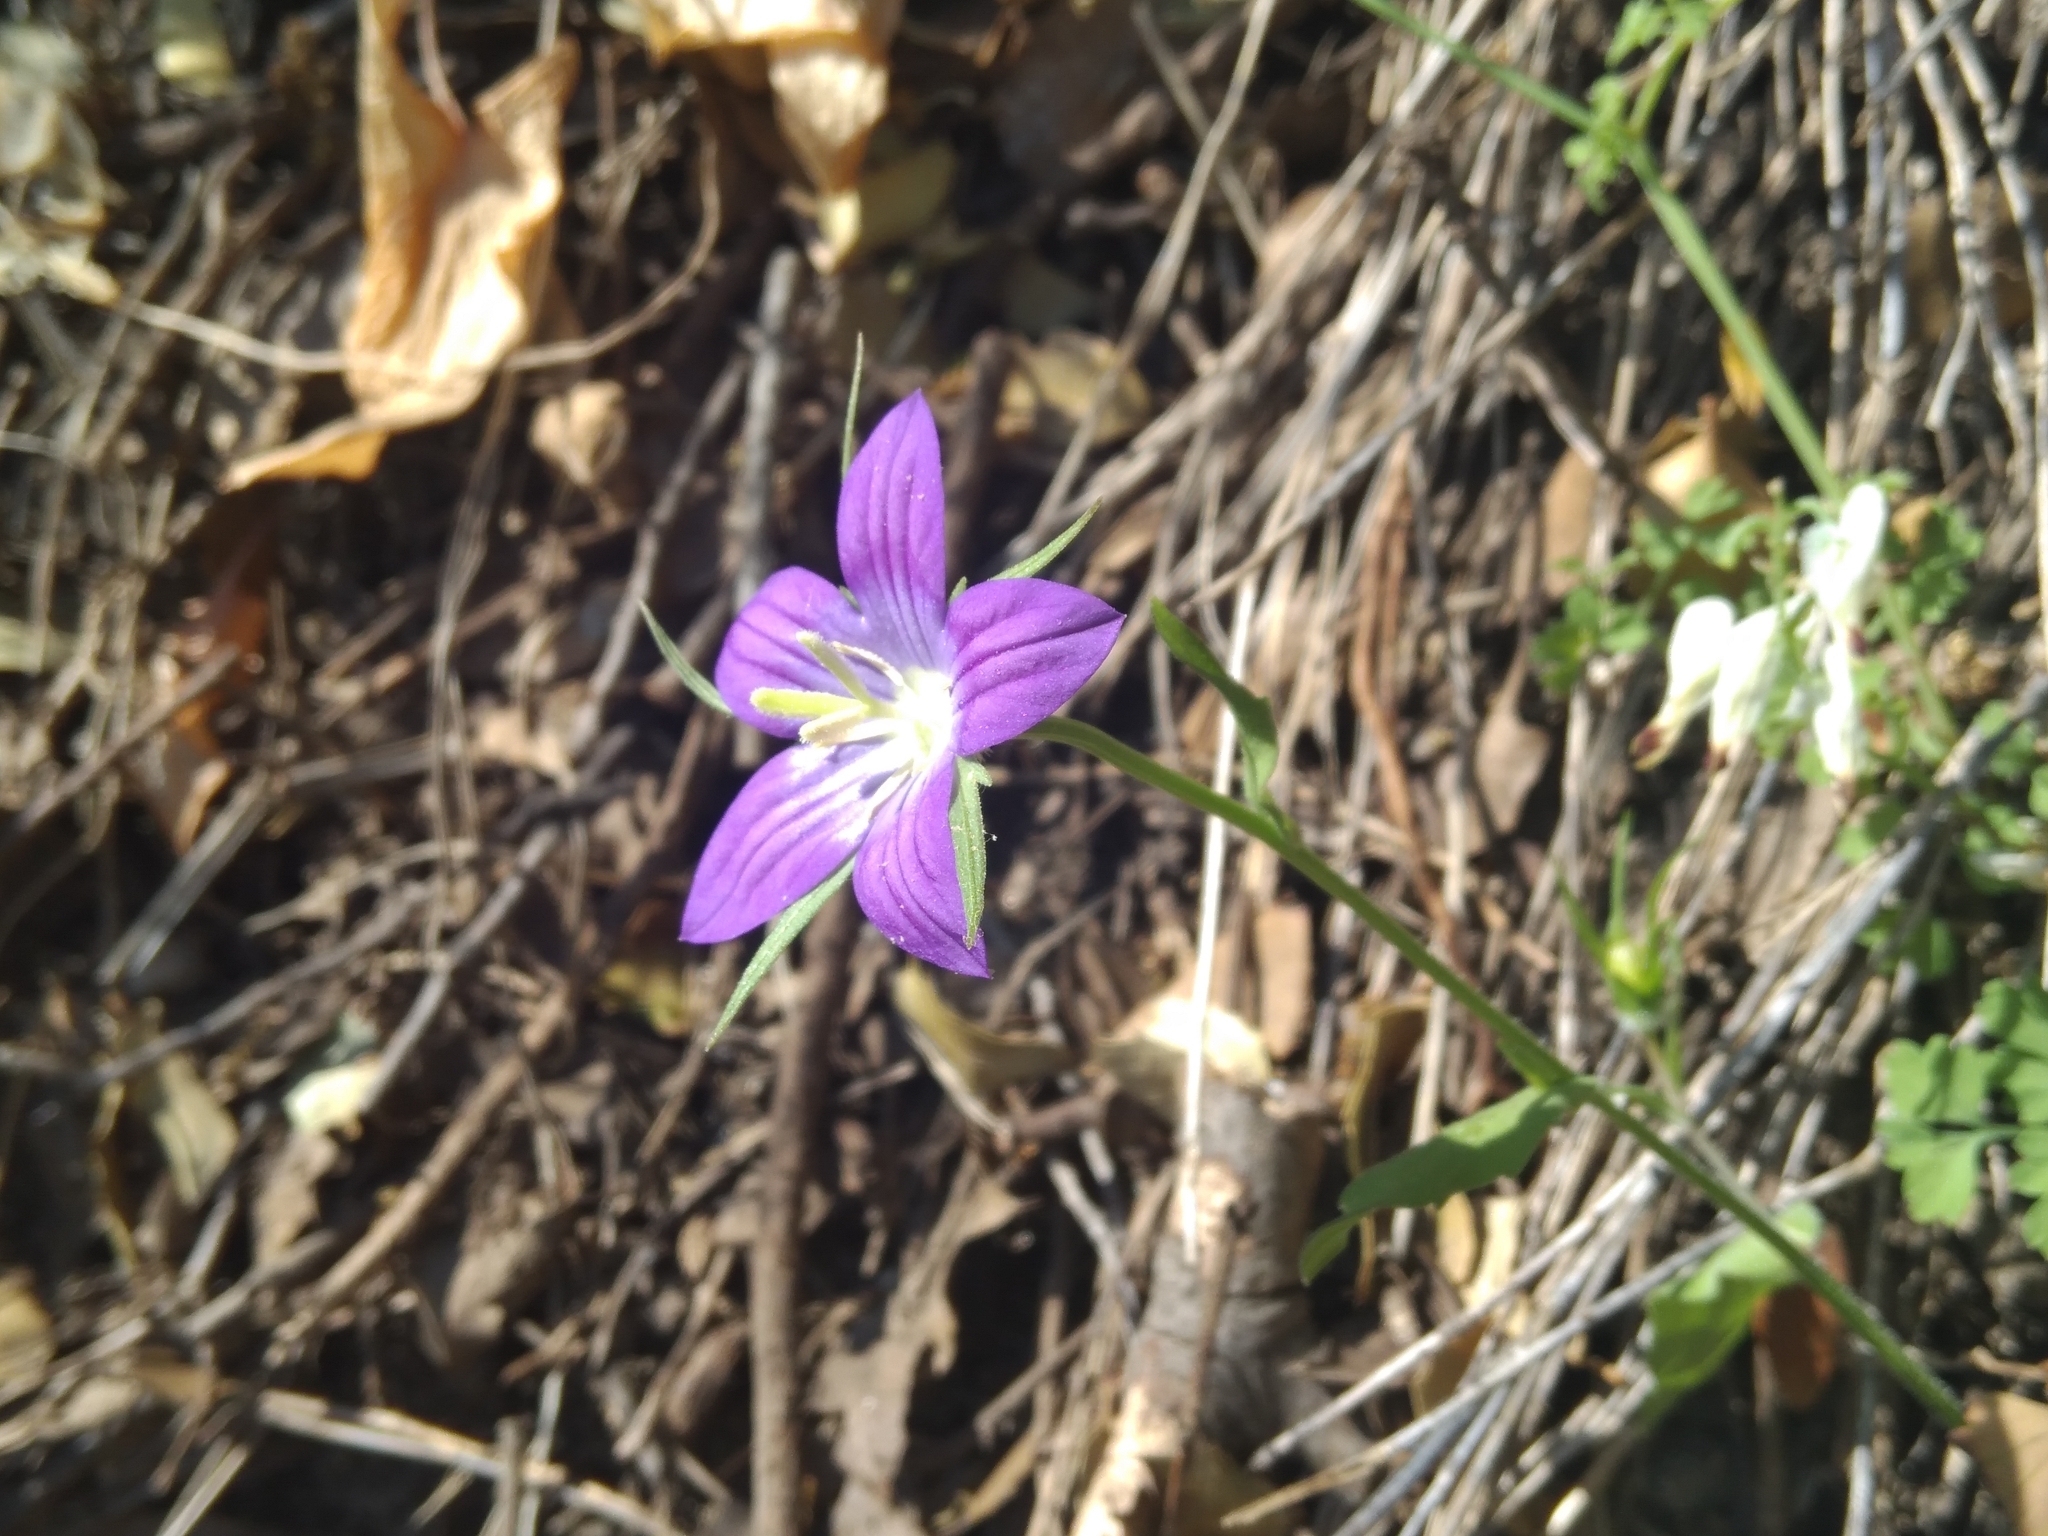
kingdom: Plantae
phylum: Tracheophyta
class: Magnoliopsida
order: Asterales
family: Campanulaceae
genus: Campanula
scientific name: Campanula ramosissima
